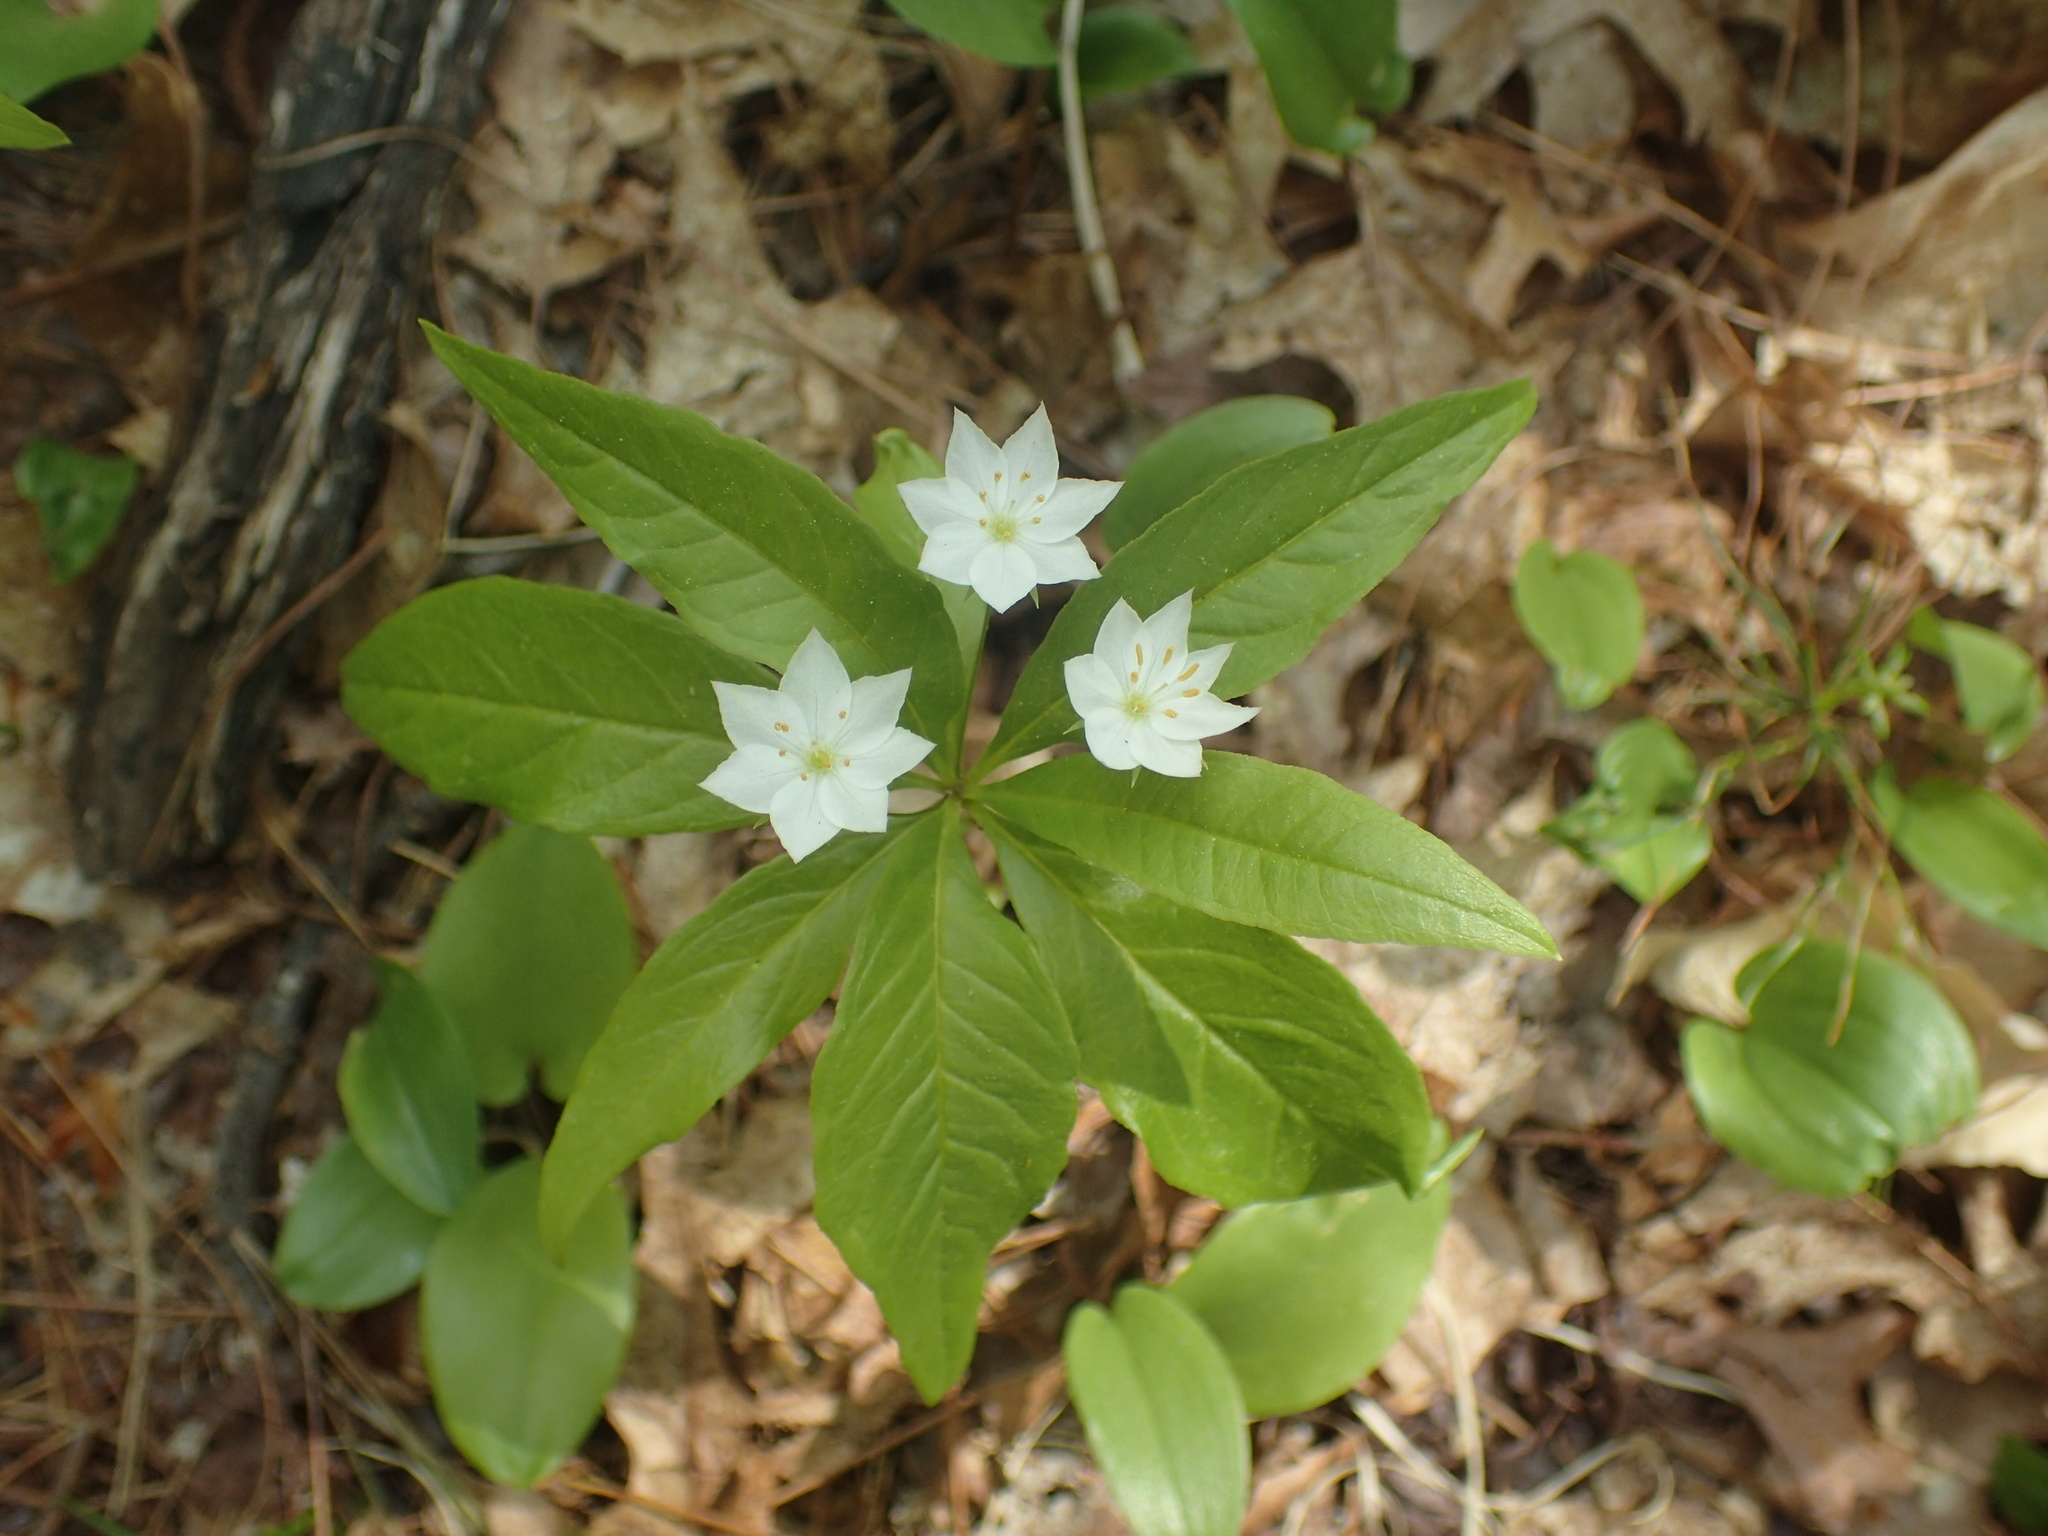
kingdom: Plantae
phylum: Tracheophyta
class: Magnoliopsida
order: Ericales
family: Primulaceae
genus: Lysimachia
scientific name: Lysimachia borealis
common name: American starflower
